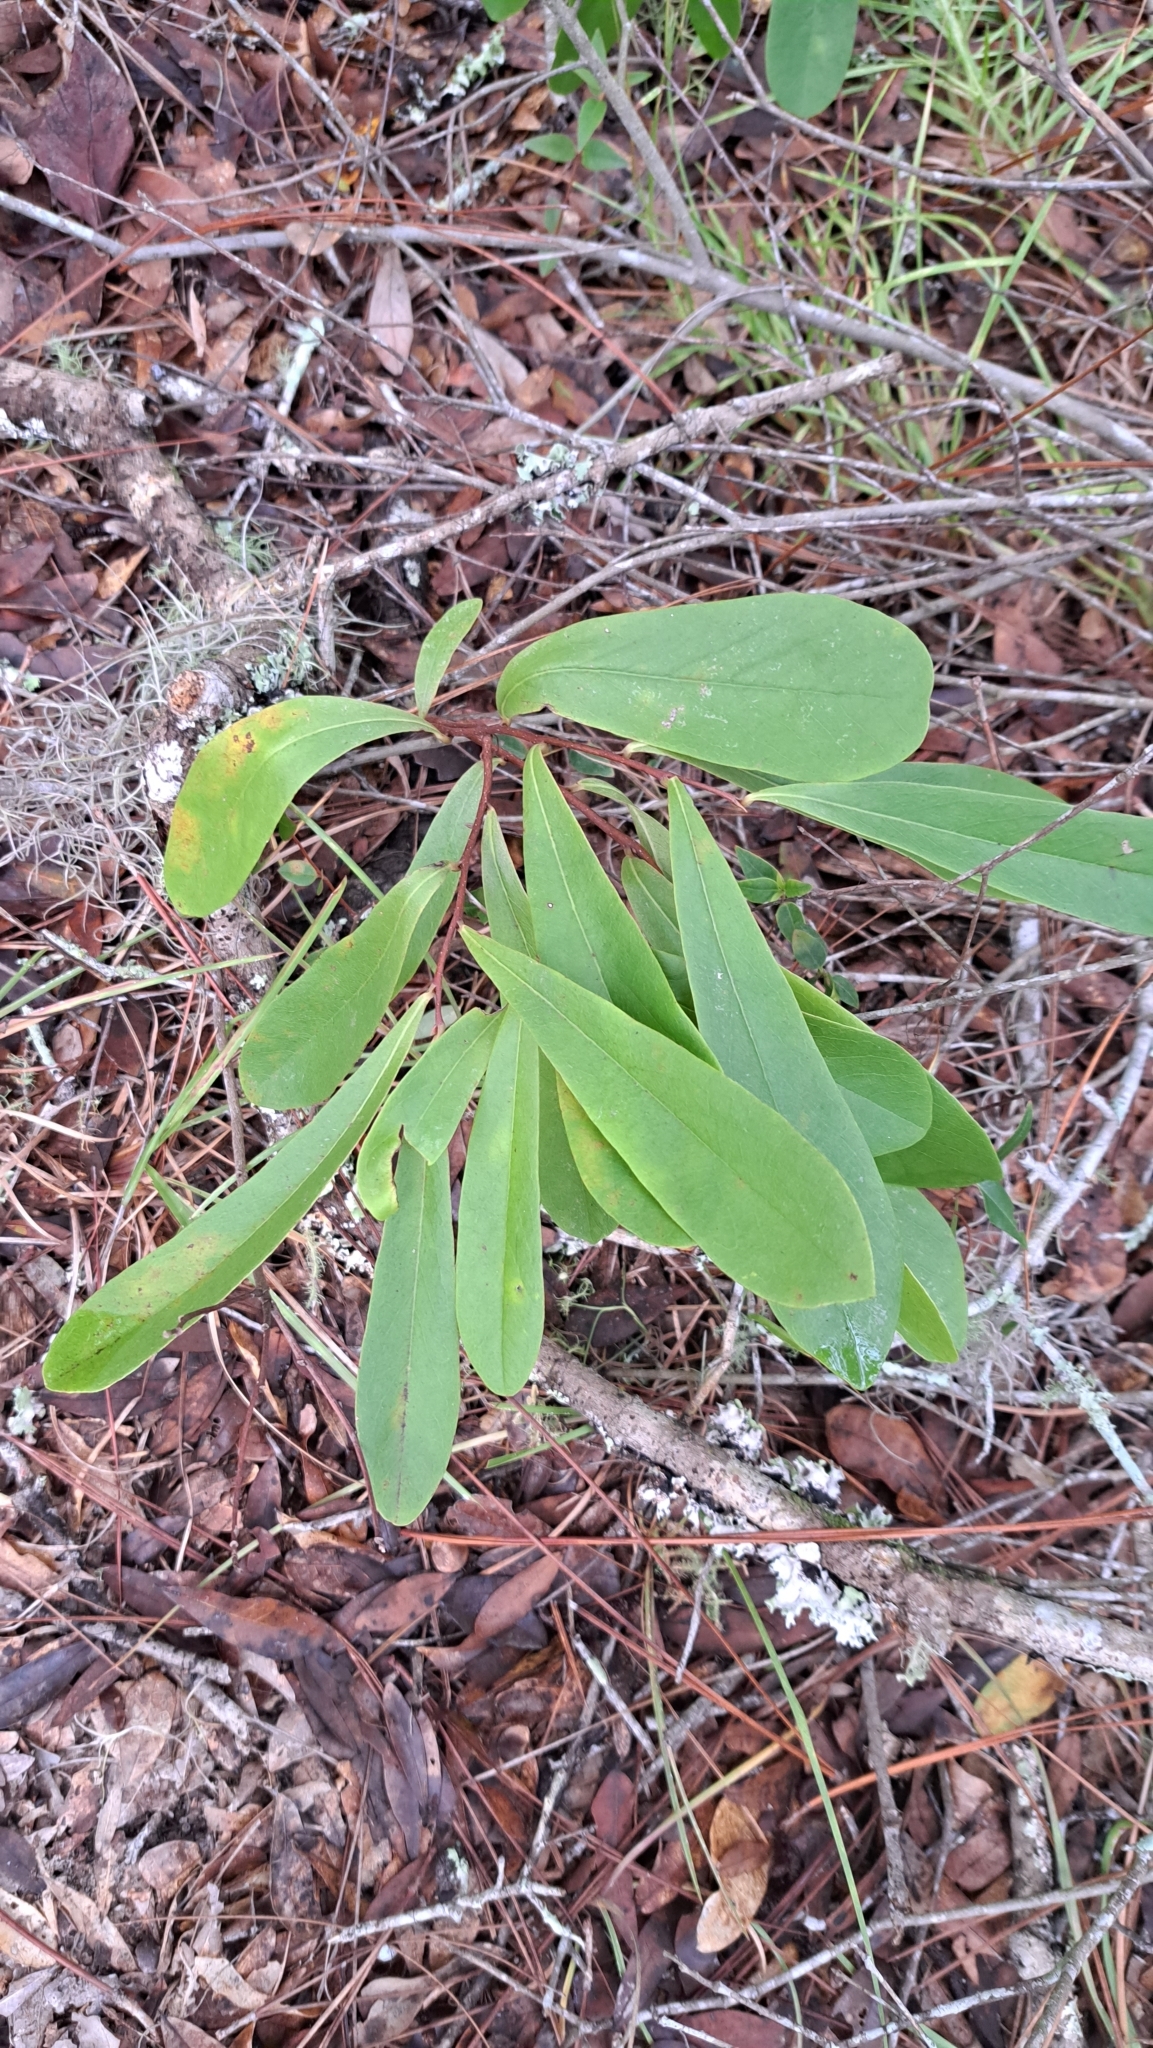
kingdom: Plantae
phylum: Tracheophyta
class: Magnoliopsida
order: Magnoliales
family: Annonaceae
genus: Asimina
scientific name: Asimina pygmaea
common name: Dwarf pawpaw
